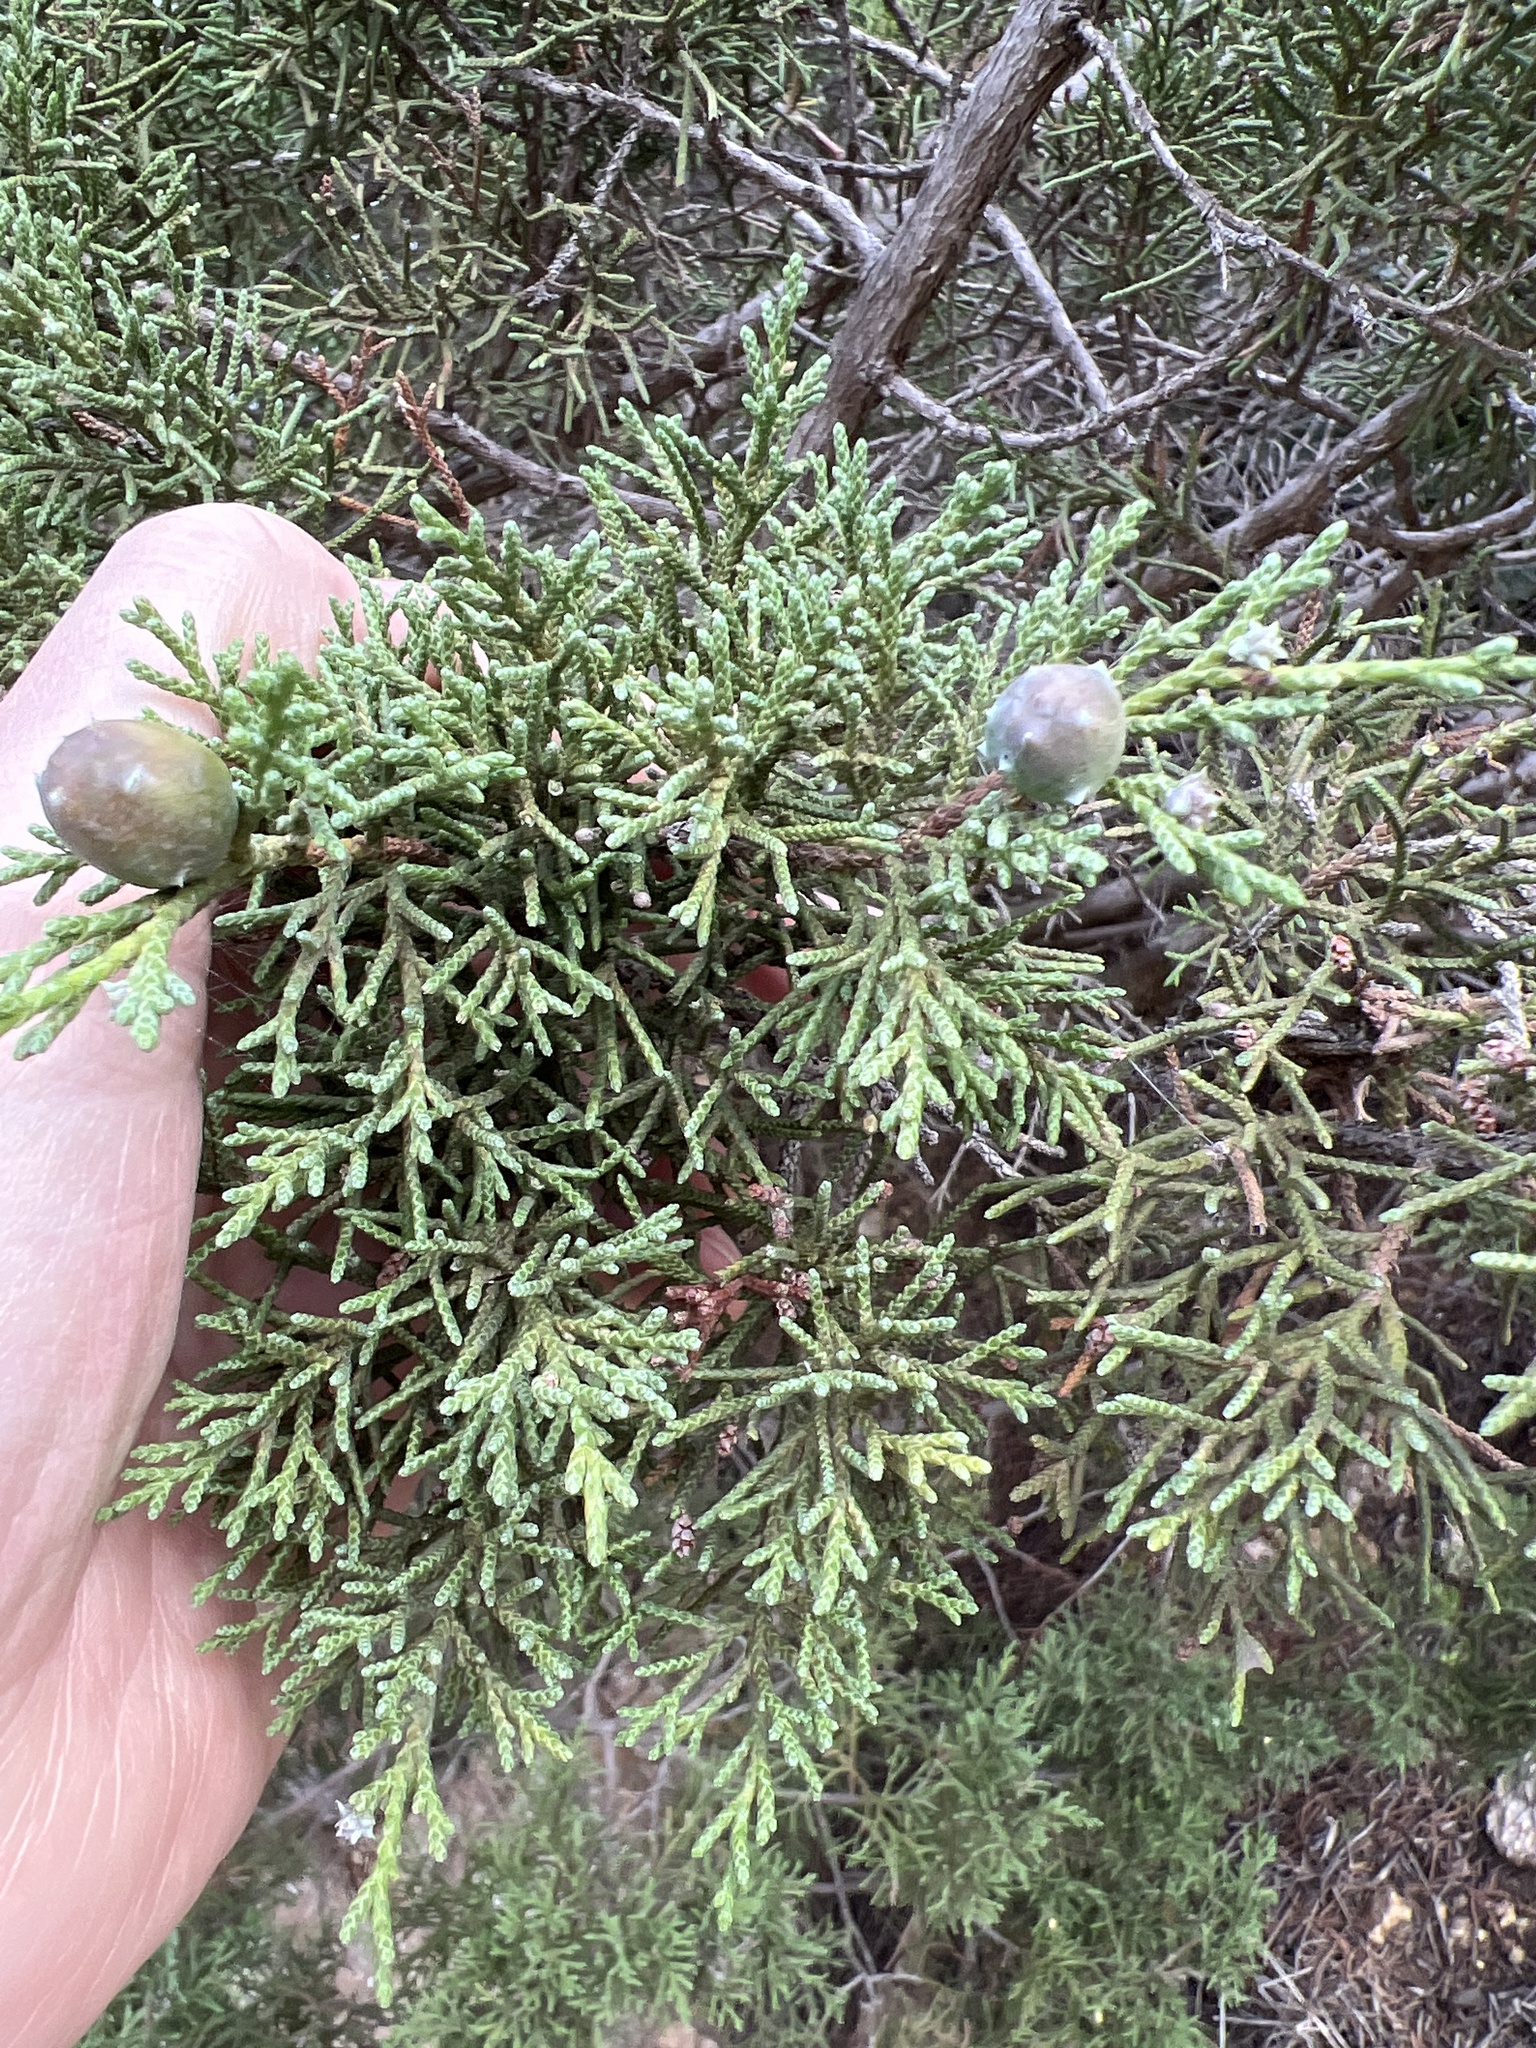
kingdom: Plantae
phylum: Tracheophyta
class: Pinopsida
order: Pinales
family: Cupressaceae
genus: Juniperus
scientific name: Juniperus canariensis
